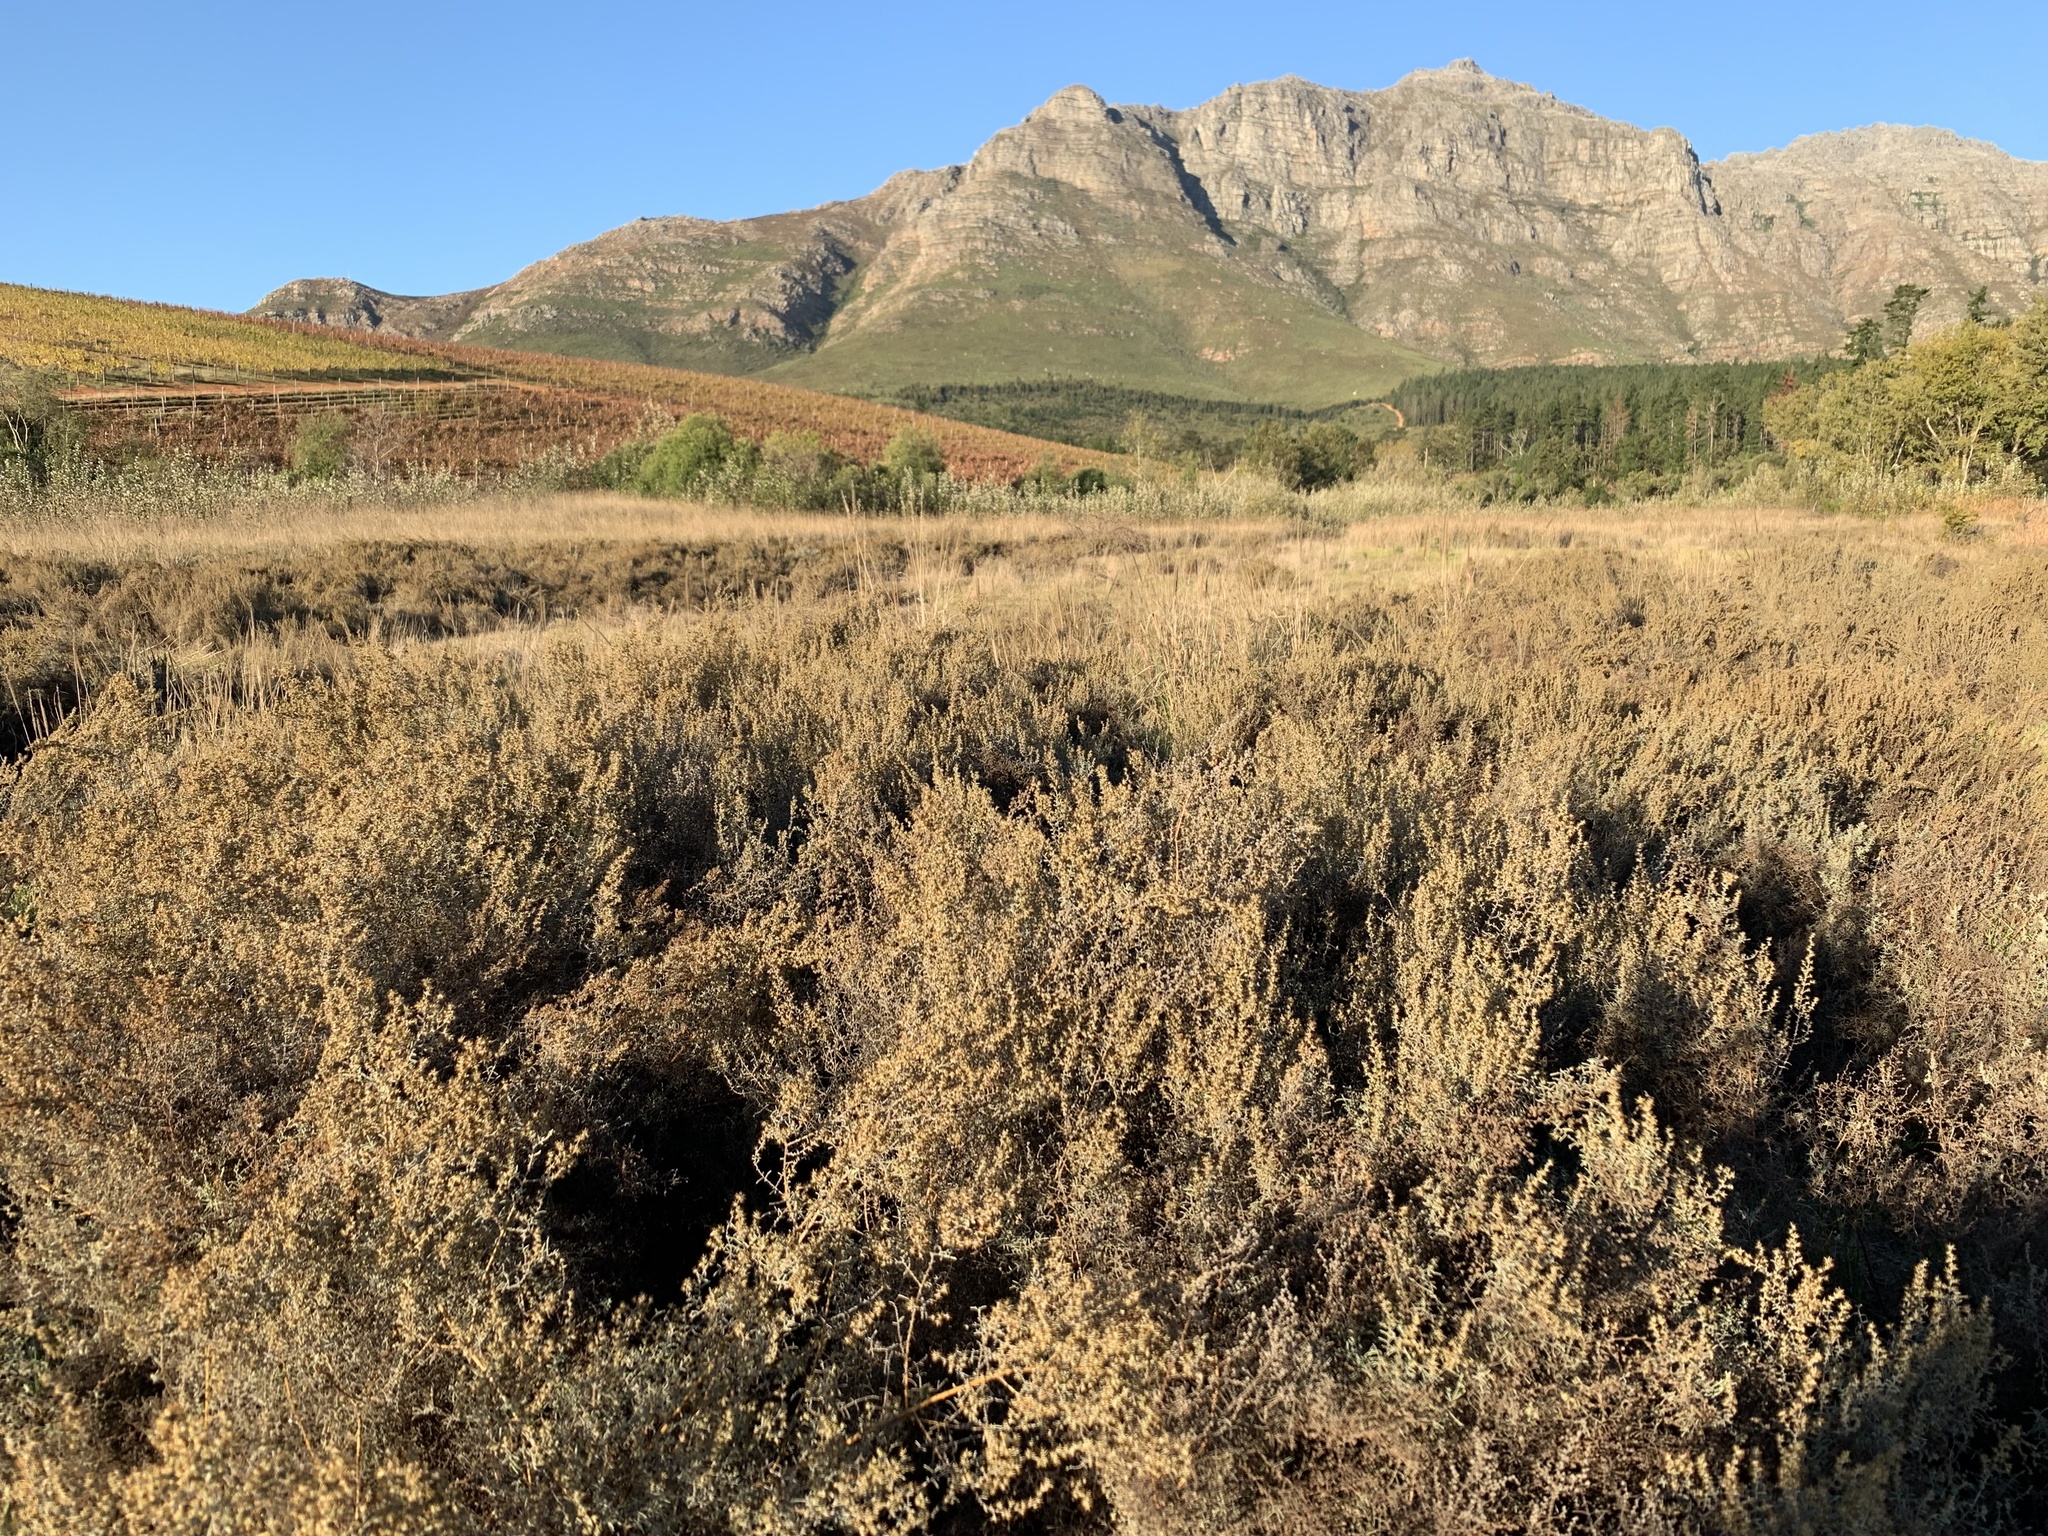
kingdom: Plantae
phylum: Tracheophyta
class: Magnoliopsida
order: Asterales
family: Asteraceae
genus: Seriphium
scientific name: Seriphium plumosum
